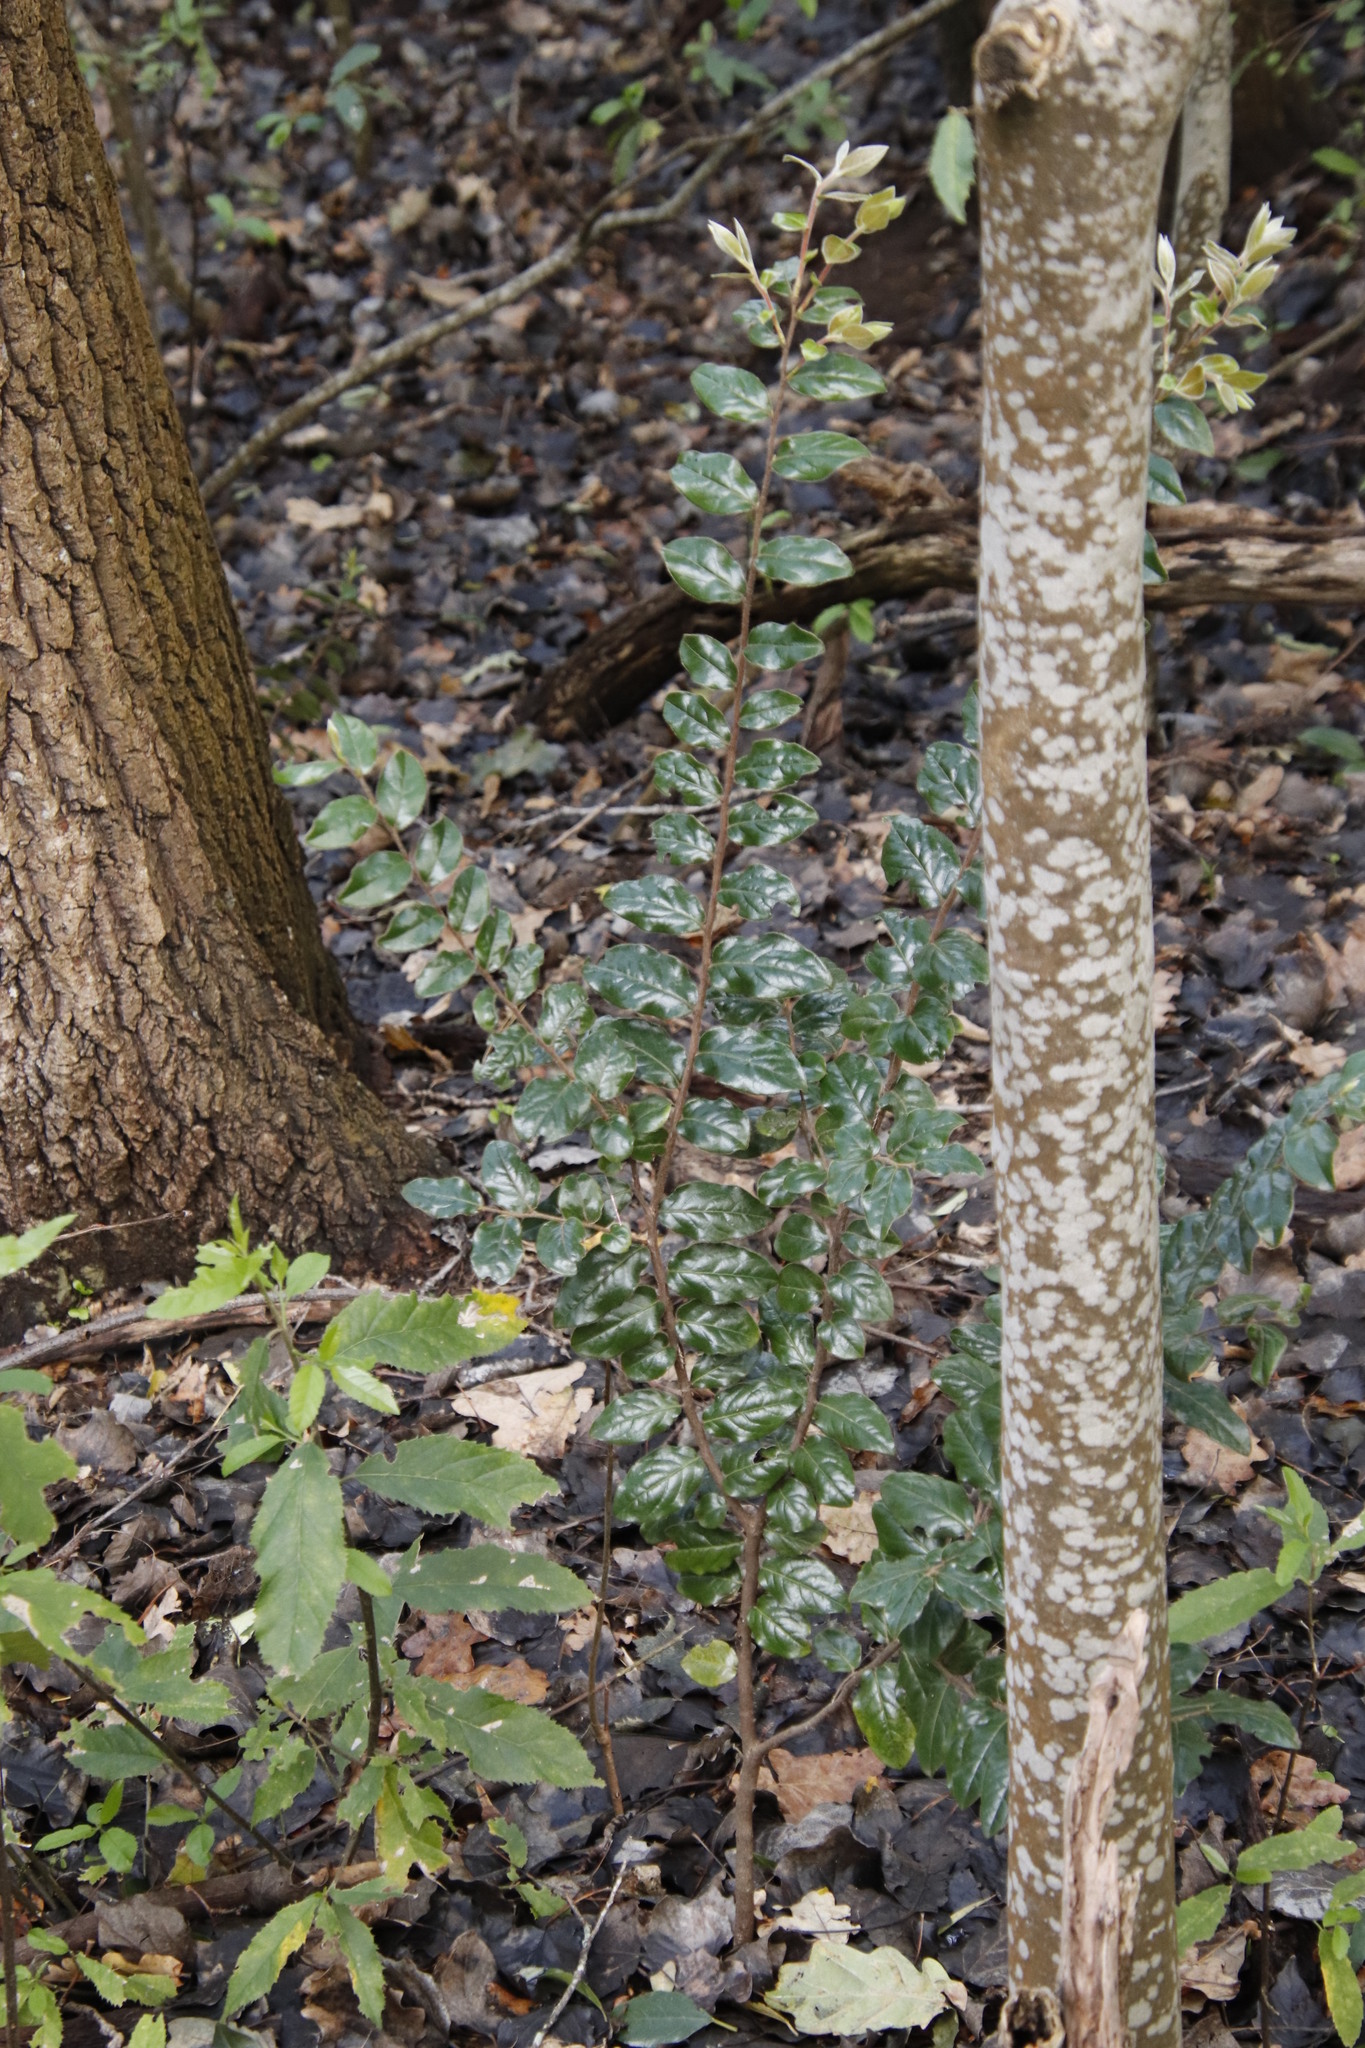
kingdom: Plantae
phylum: Tracheophyta
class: Magnoliopsida
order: Ericales
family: Ebenaceae
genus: Diospyros
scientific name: Diospyros whyteana
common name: Bladder-nut
